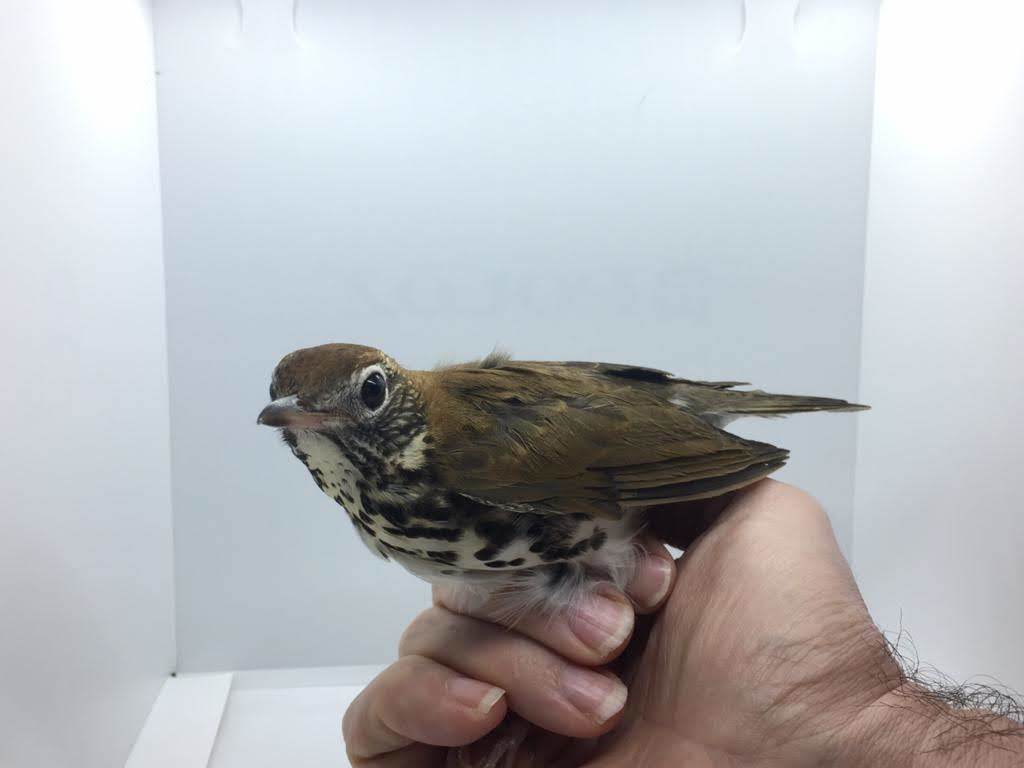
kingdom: Animalia
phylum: Chordata
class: Aves
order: Passeriformes
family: Turdidae
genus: Hylocichla
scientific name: Hylocichla mustelina
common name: Wood thrush
